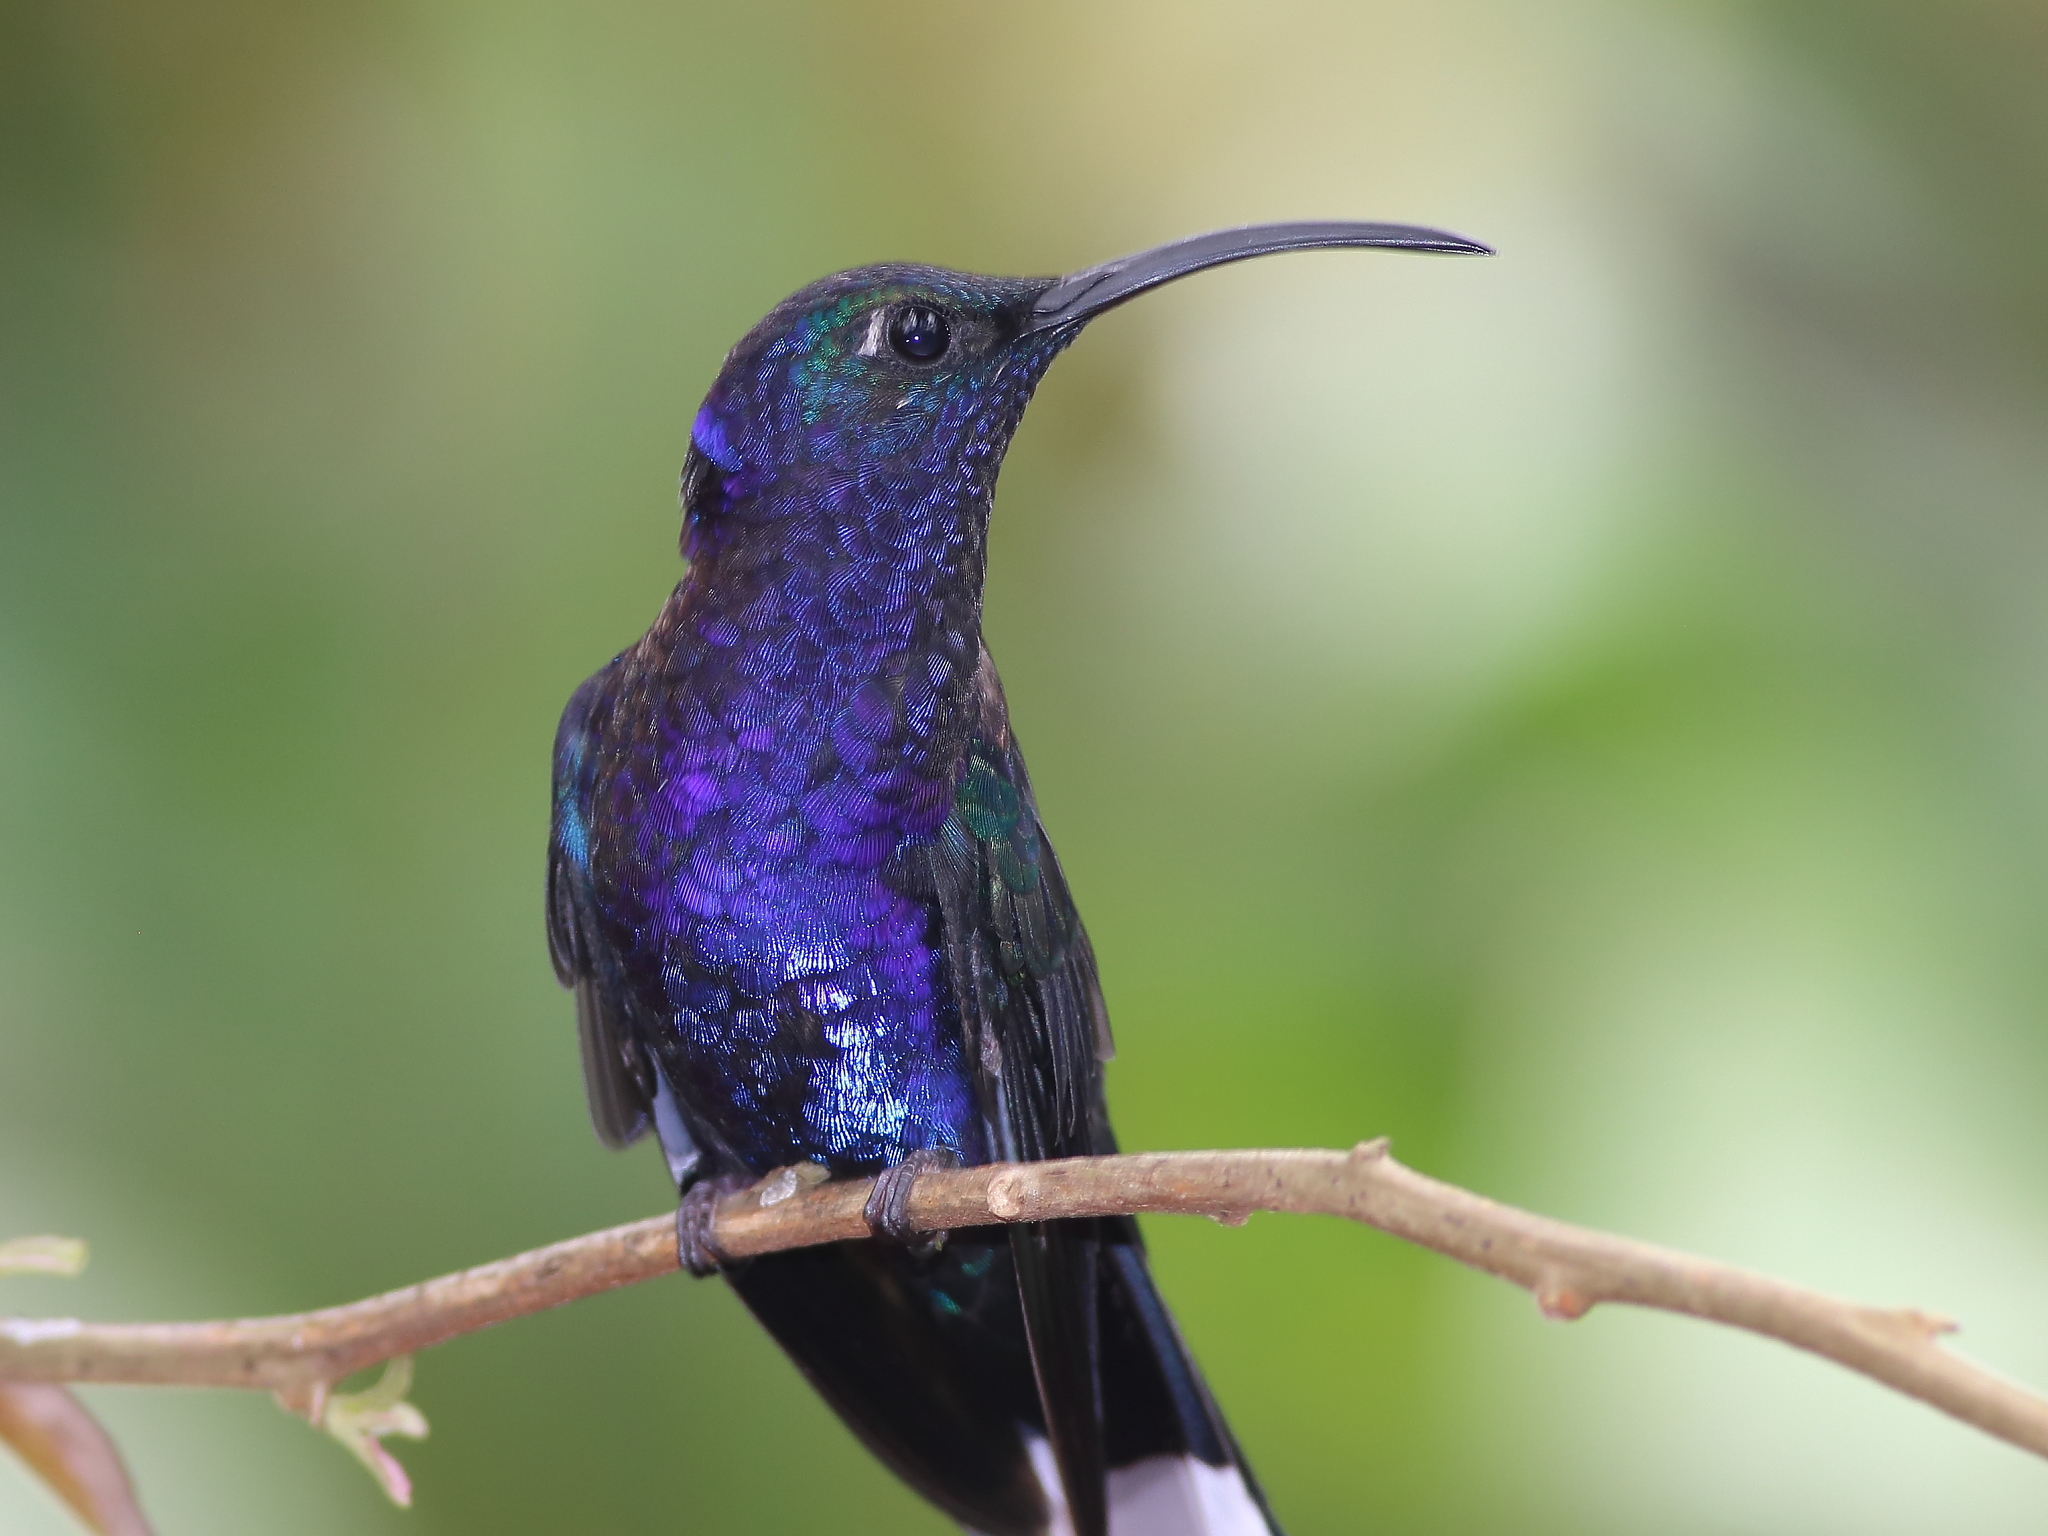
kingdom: Animalia
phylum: Chordata
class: Aves
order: Apodiformes
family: Trochilidae
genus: Campylopterus
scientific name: Campylopterus hemileucurus
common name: Violet sabrewing
